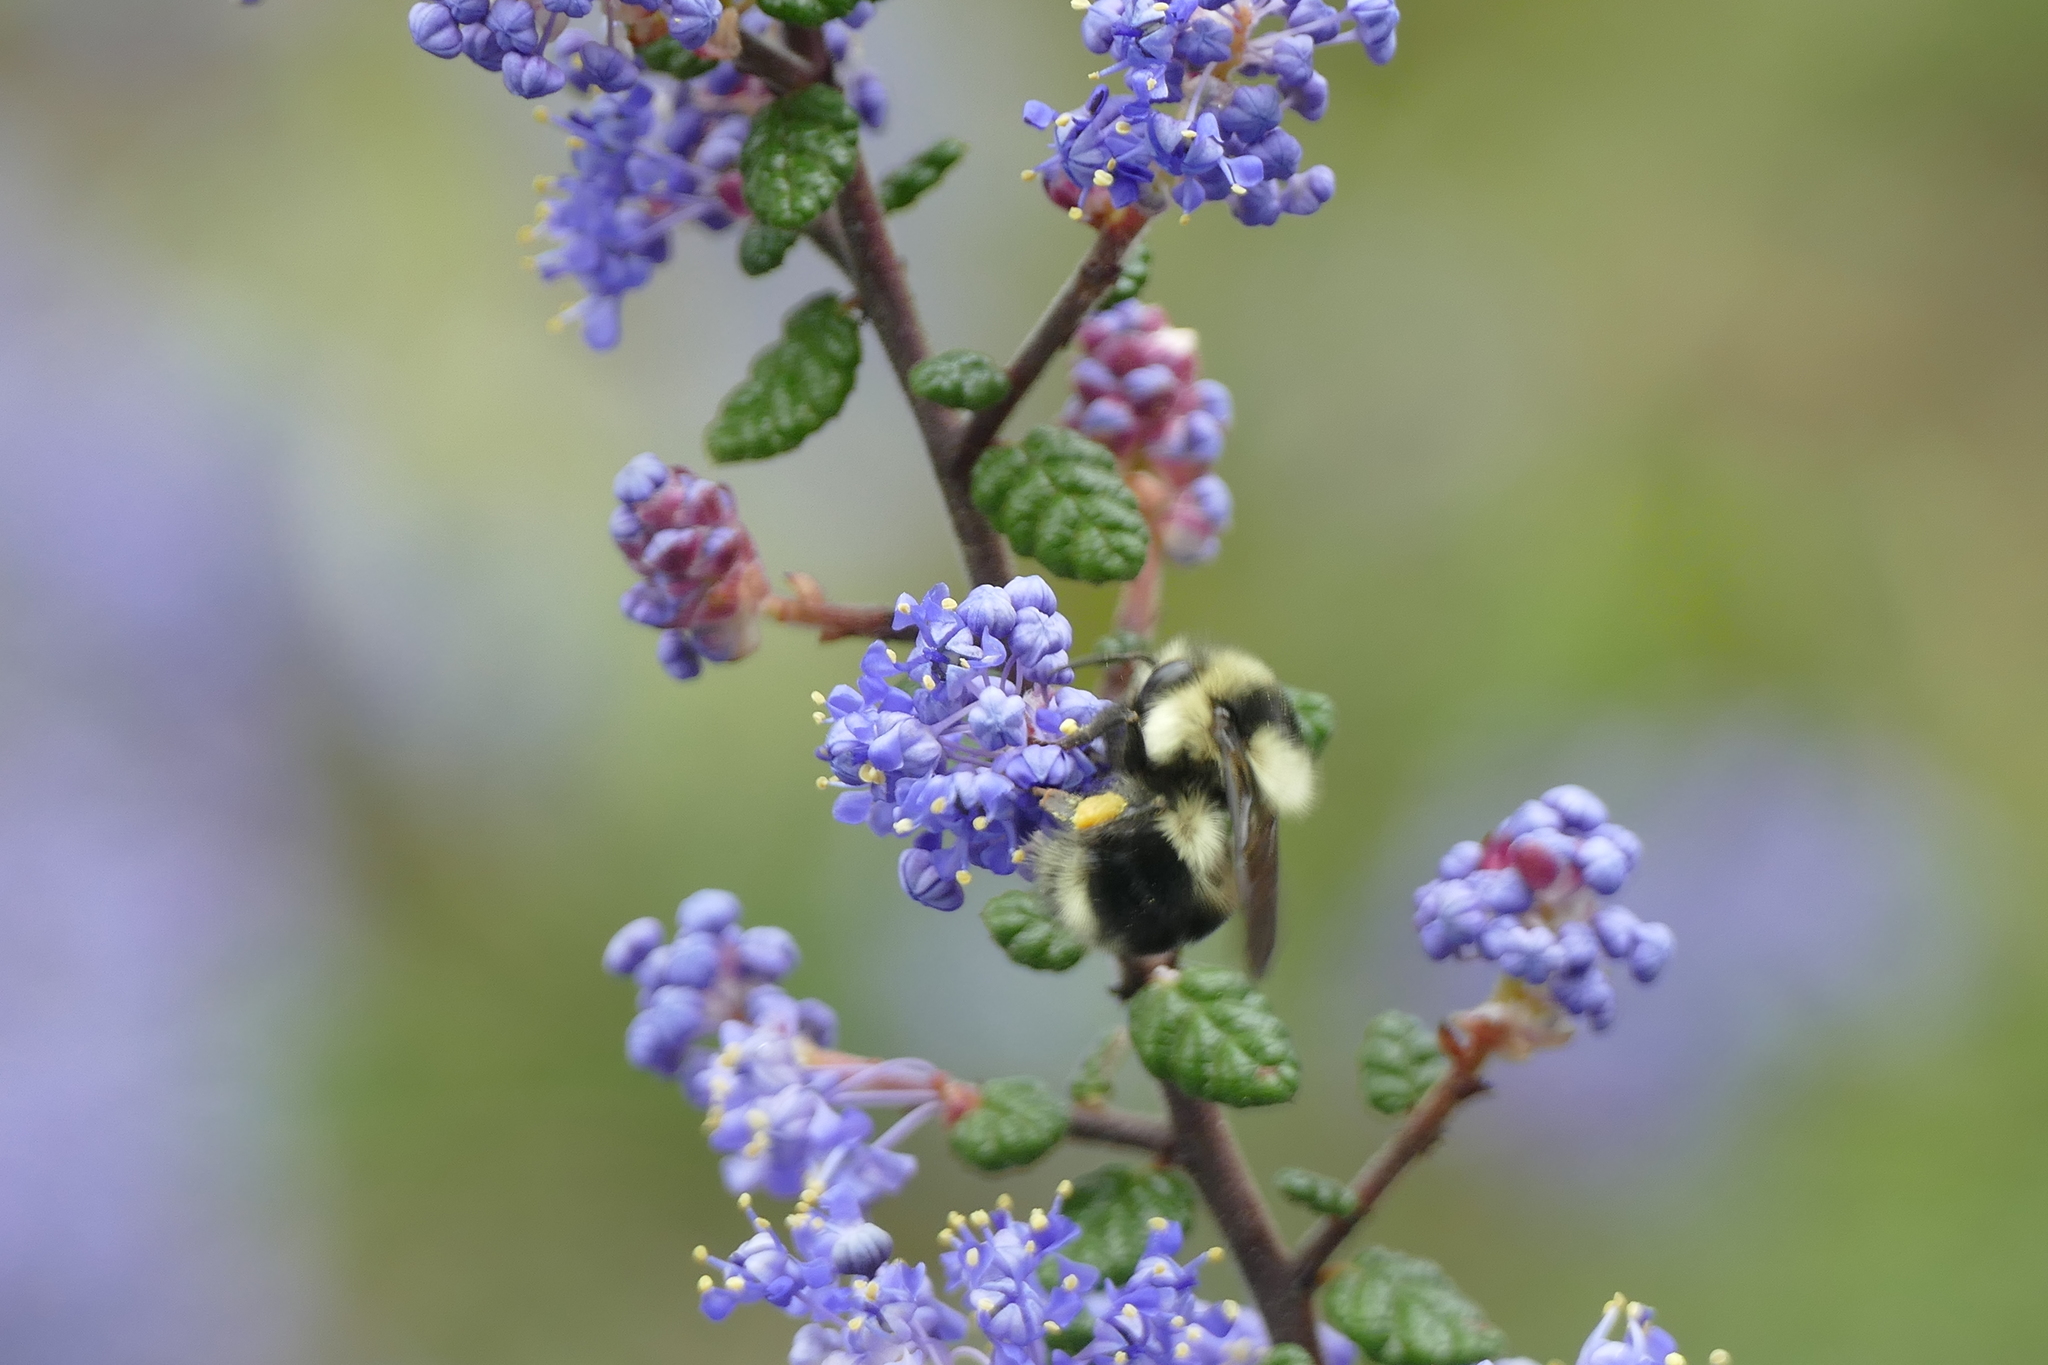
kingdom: Animalia
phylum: Arthropoda
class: Insecta
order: Hymenoptera
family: Apidae
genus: Bombus
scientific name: Bombus melanopygus
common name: Black tail bumble bee
